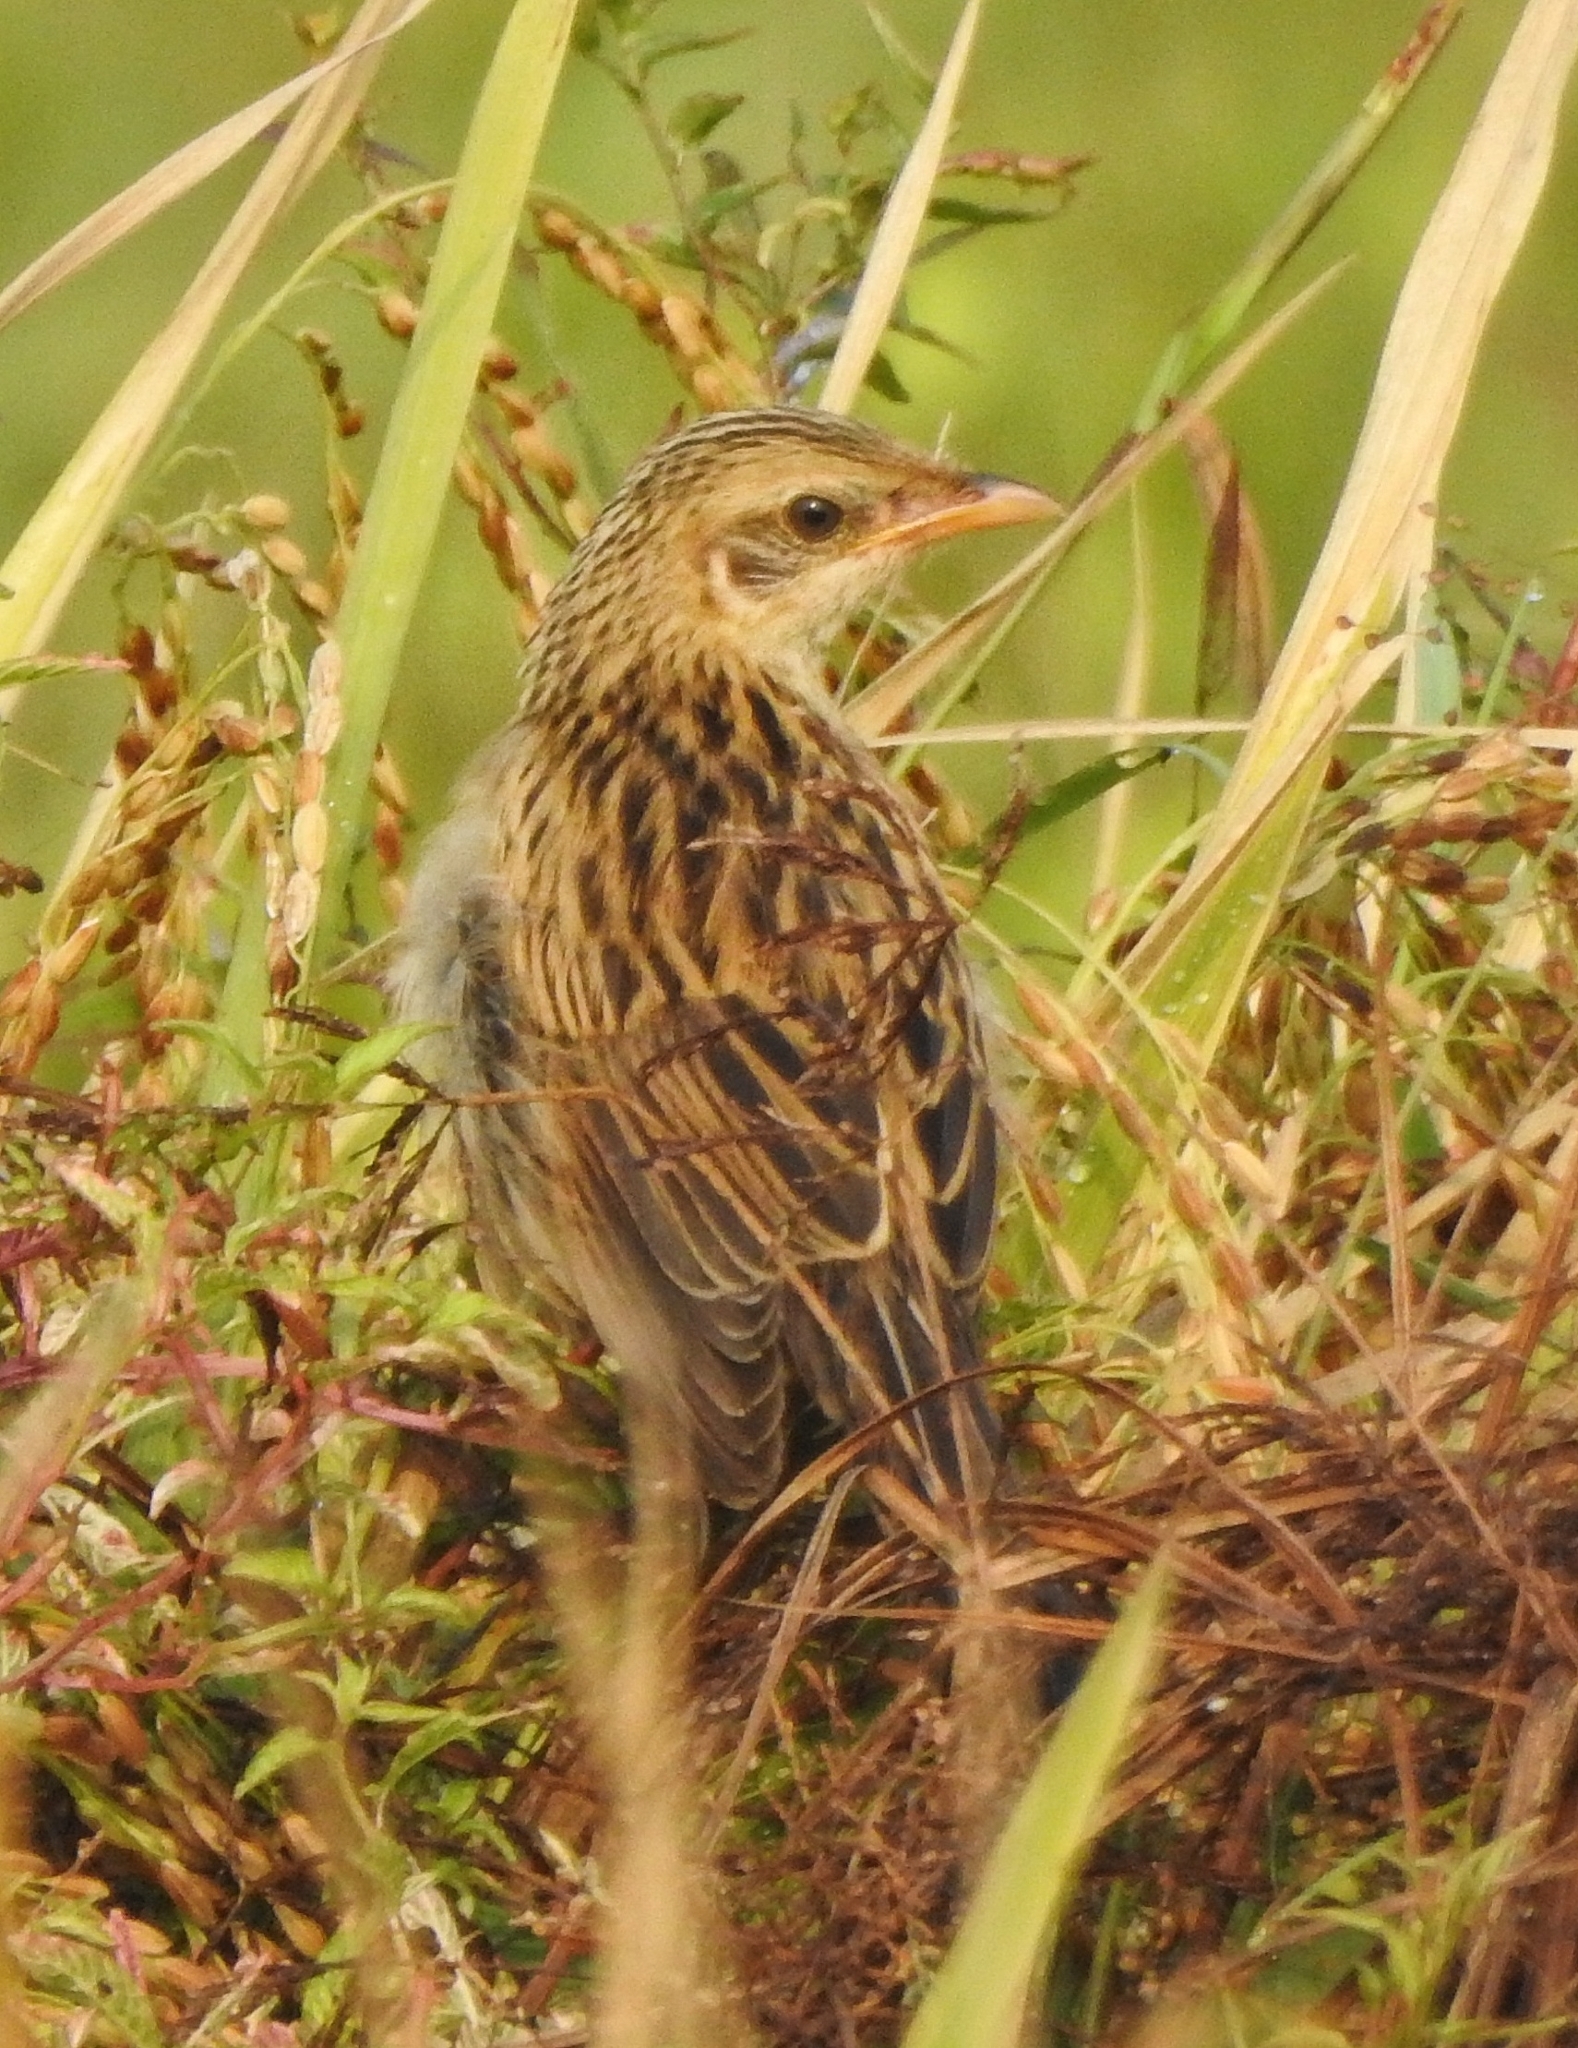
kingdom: Animalia
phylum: Chordata
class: Aves
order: Passeriformes
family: Locustellidae
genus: Chaetornis
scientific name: Chaetornis striata
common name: Bristled grassbird
